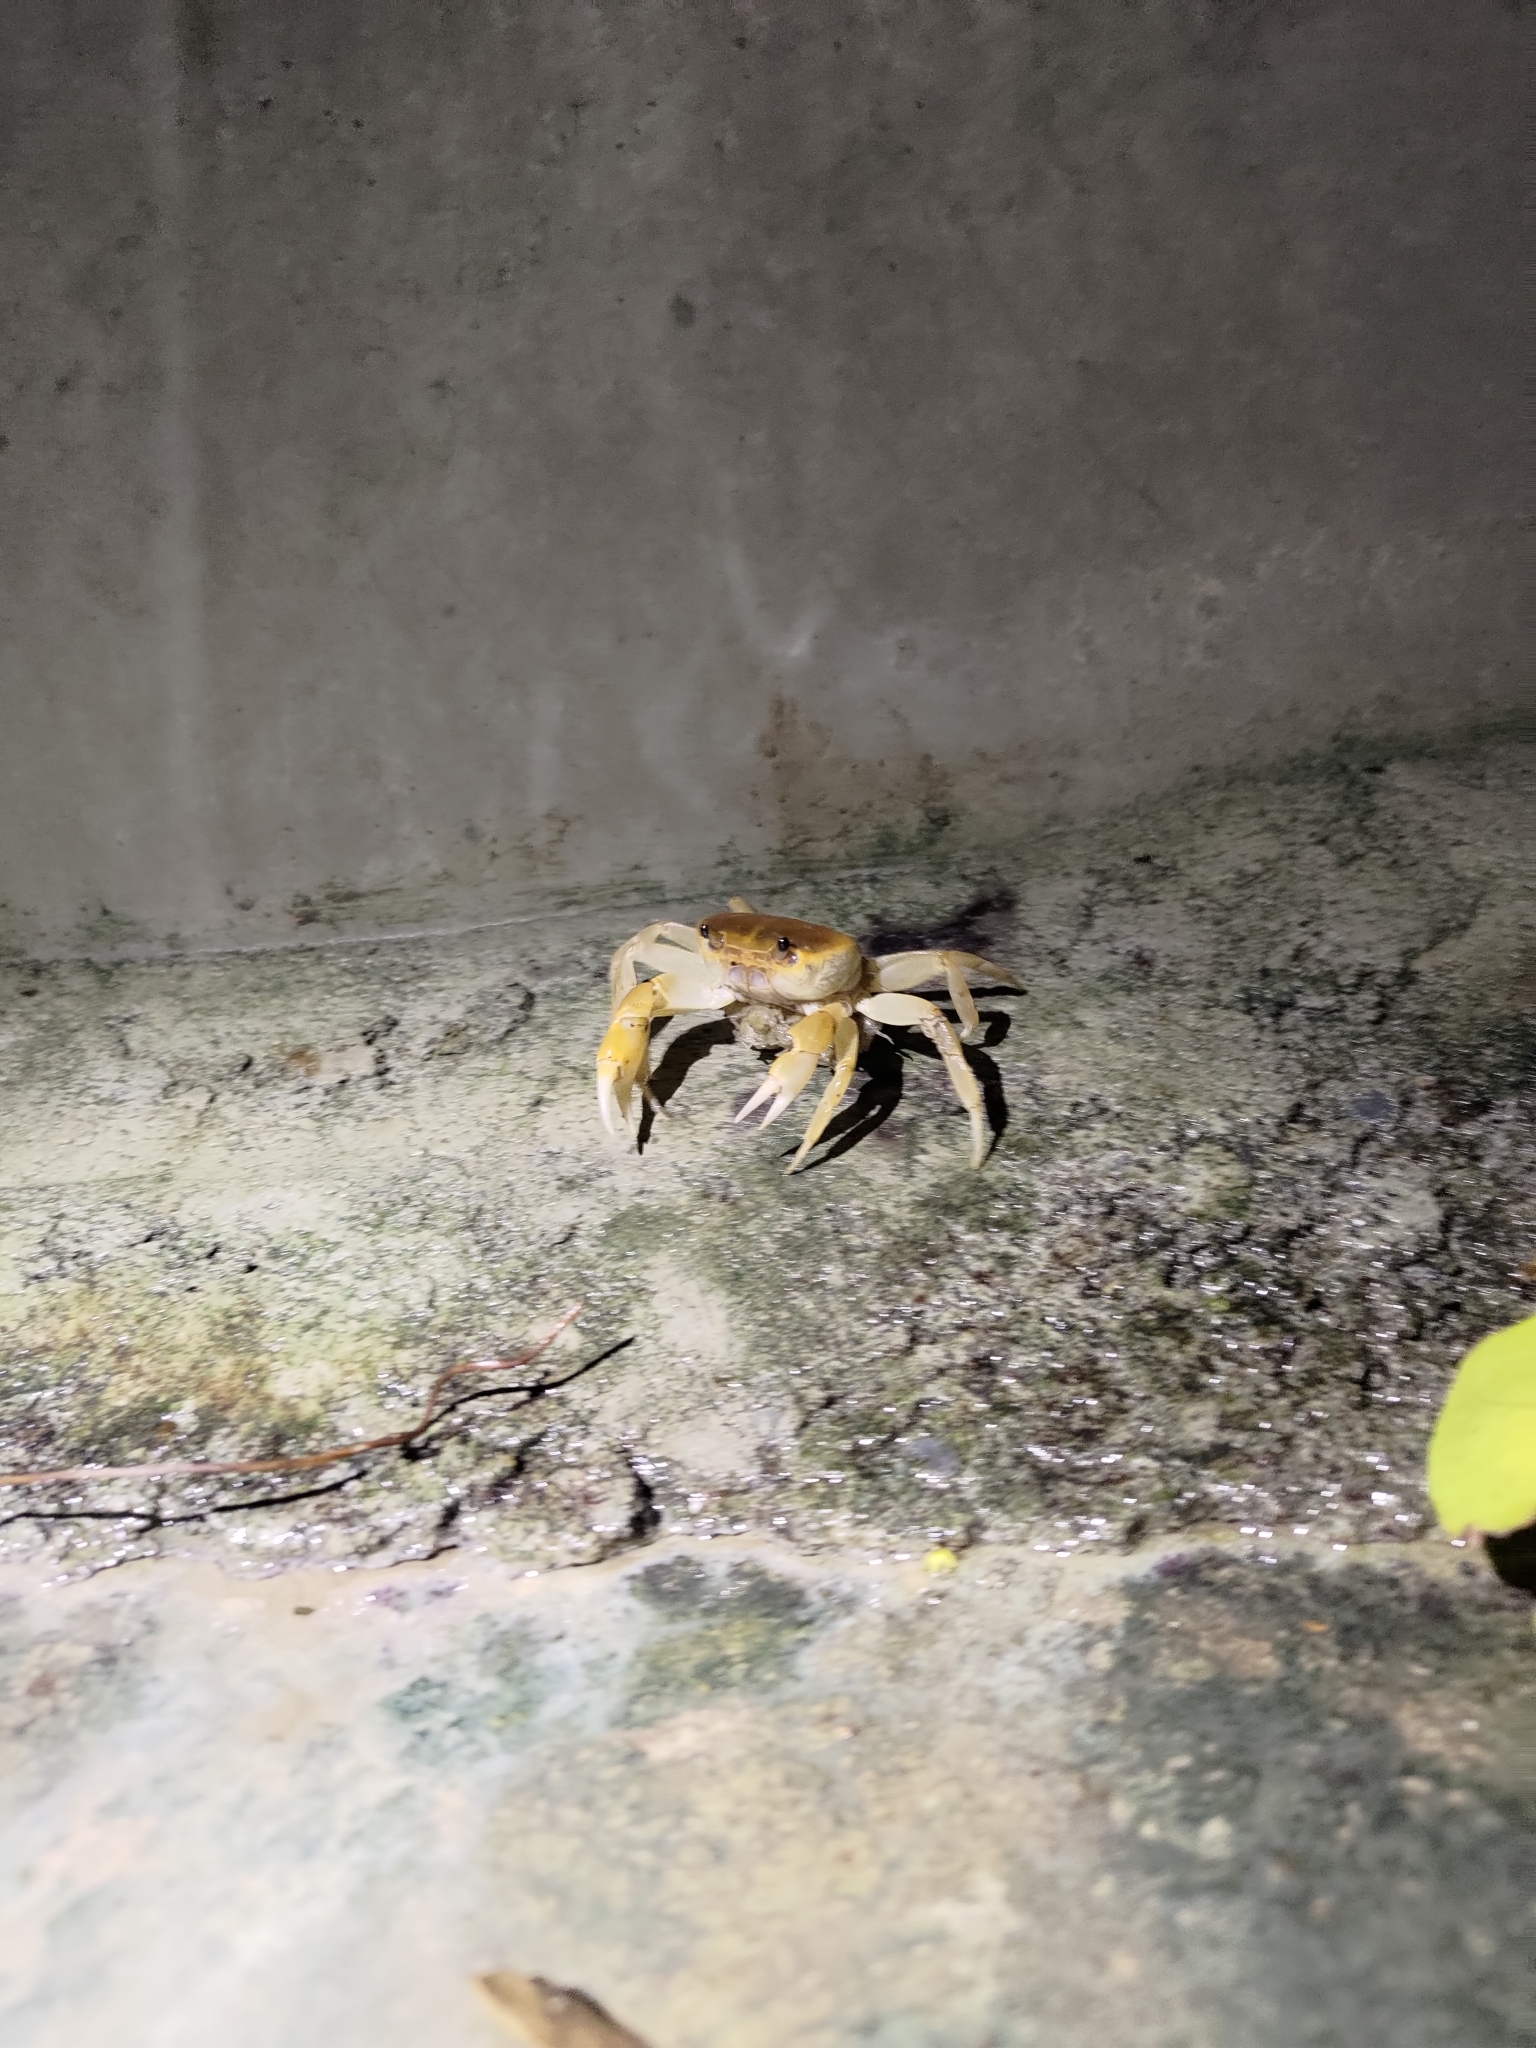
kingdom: Animalia
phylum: Arthropoda
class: Malacostraca
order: Decapoda
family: Potamidae
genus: Geothelphusa
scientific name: Geothelphusa makatao
